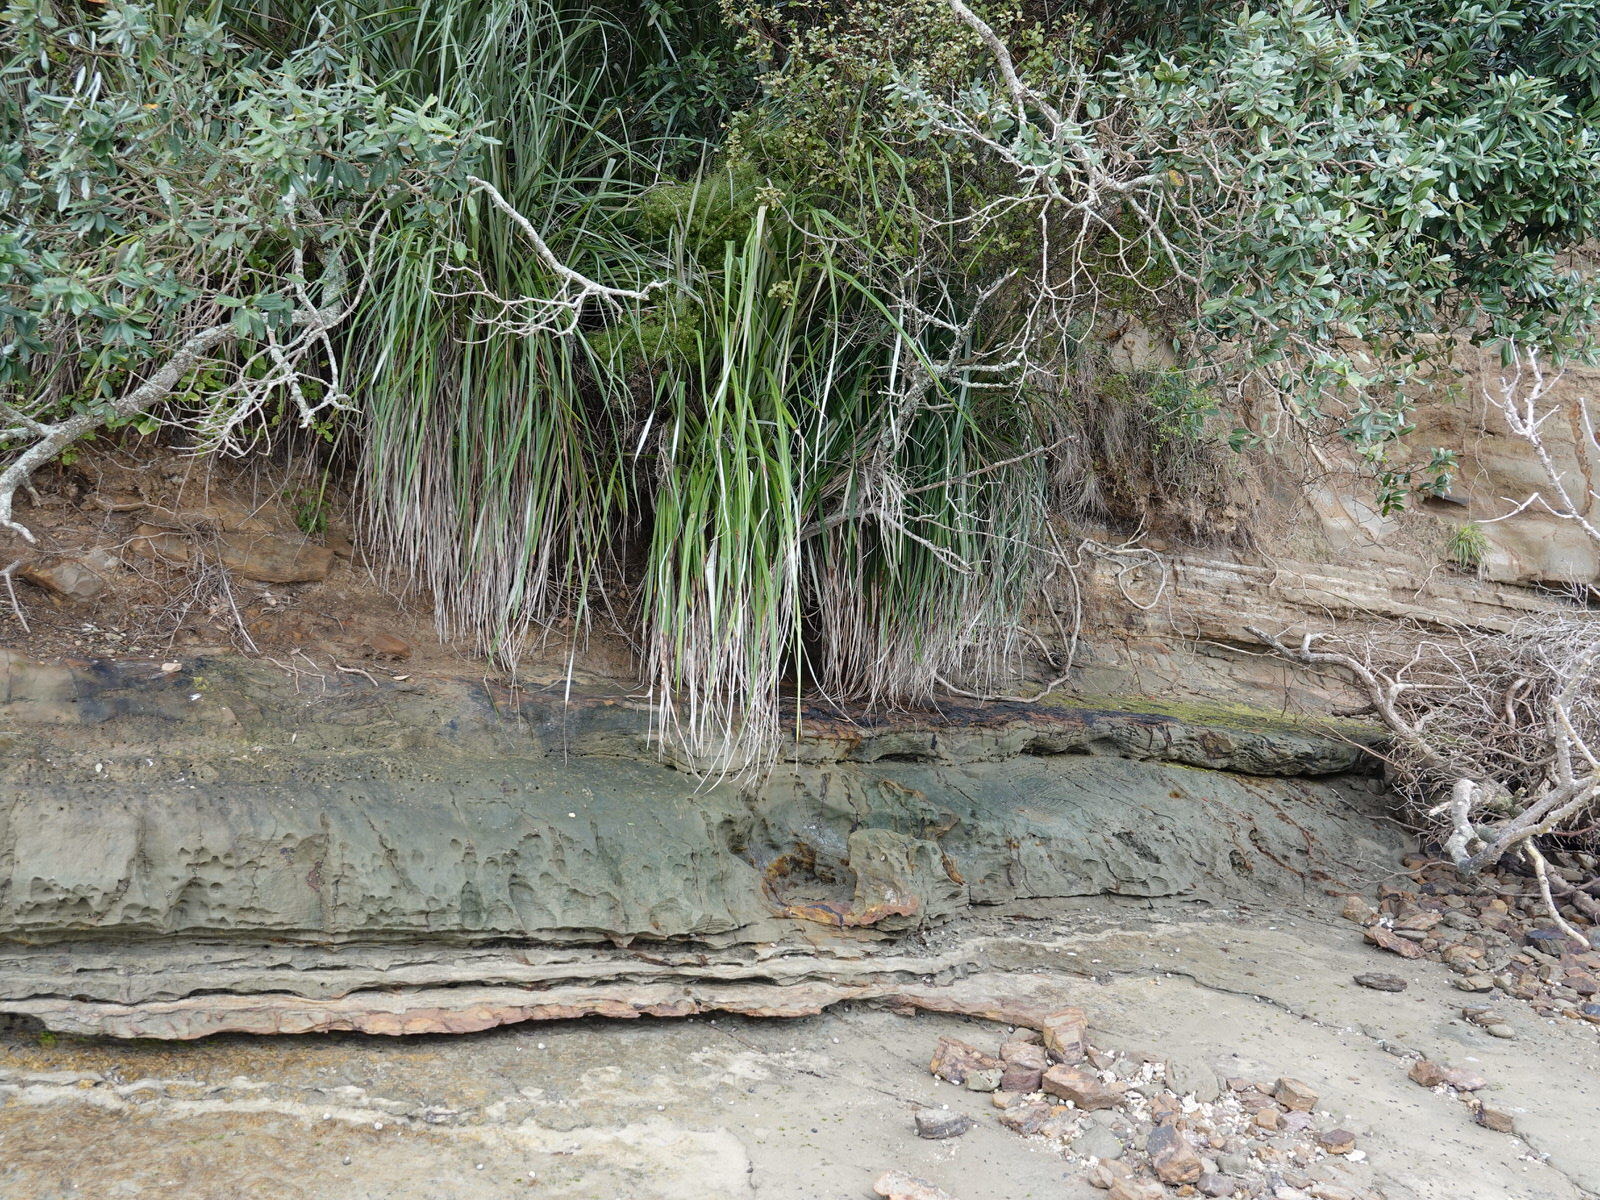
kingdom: Plantae
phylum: Tracheophyta
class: Magnoliopsida
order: Ericales
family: Ericaceae
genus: Leptecophylla
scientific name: Leptecophylla juniperina
